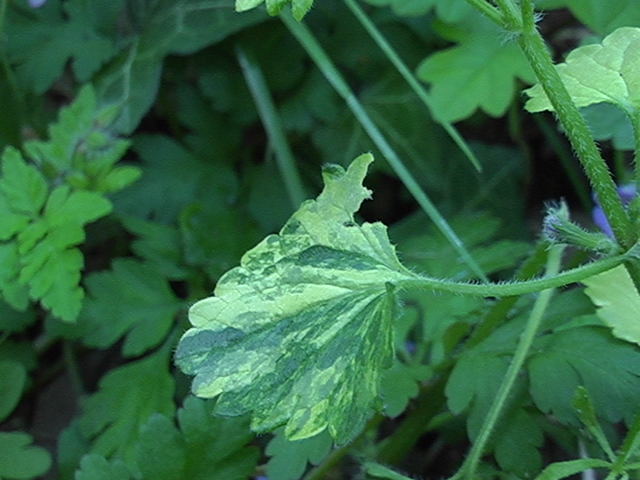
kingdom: Plantae
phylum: Tracheophyta
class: Magnoliopsida
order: Lamiales
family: Lamiaceae
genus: Glechoma
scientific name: Glechoma hederacea
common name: Ground ivy
